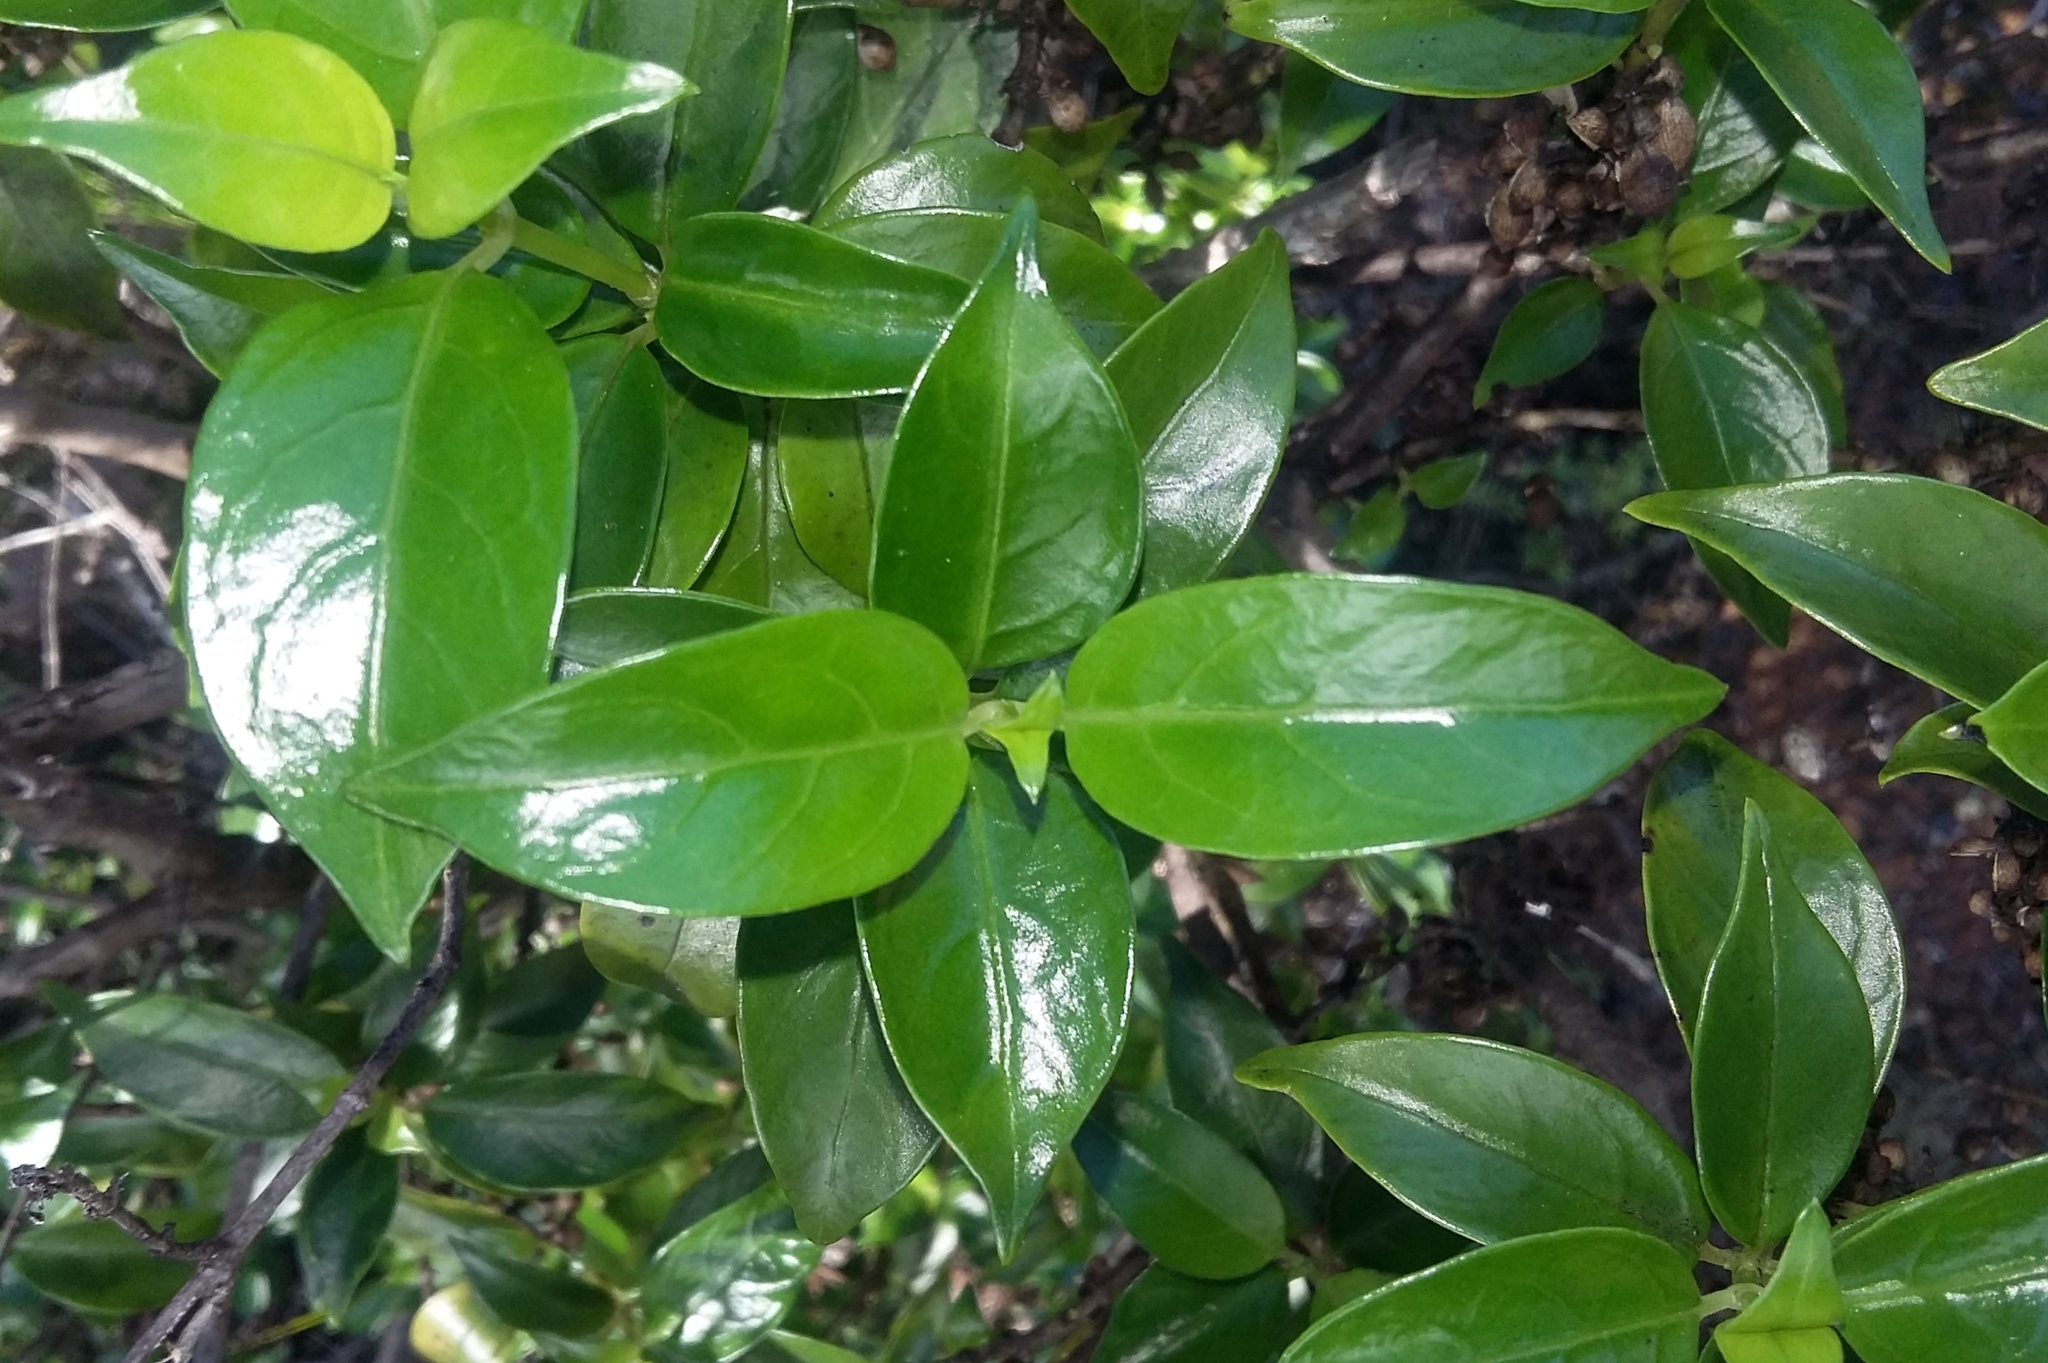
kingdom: Plantae
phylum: Tracheophyta
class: Magnoliopsida
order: Gentianales
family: Loganiaceae
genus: Geniostoma
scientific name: Geniostoma ligustrifolium
